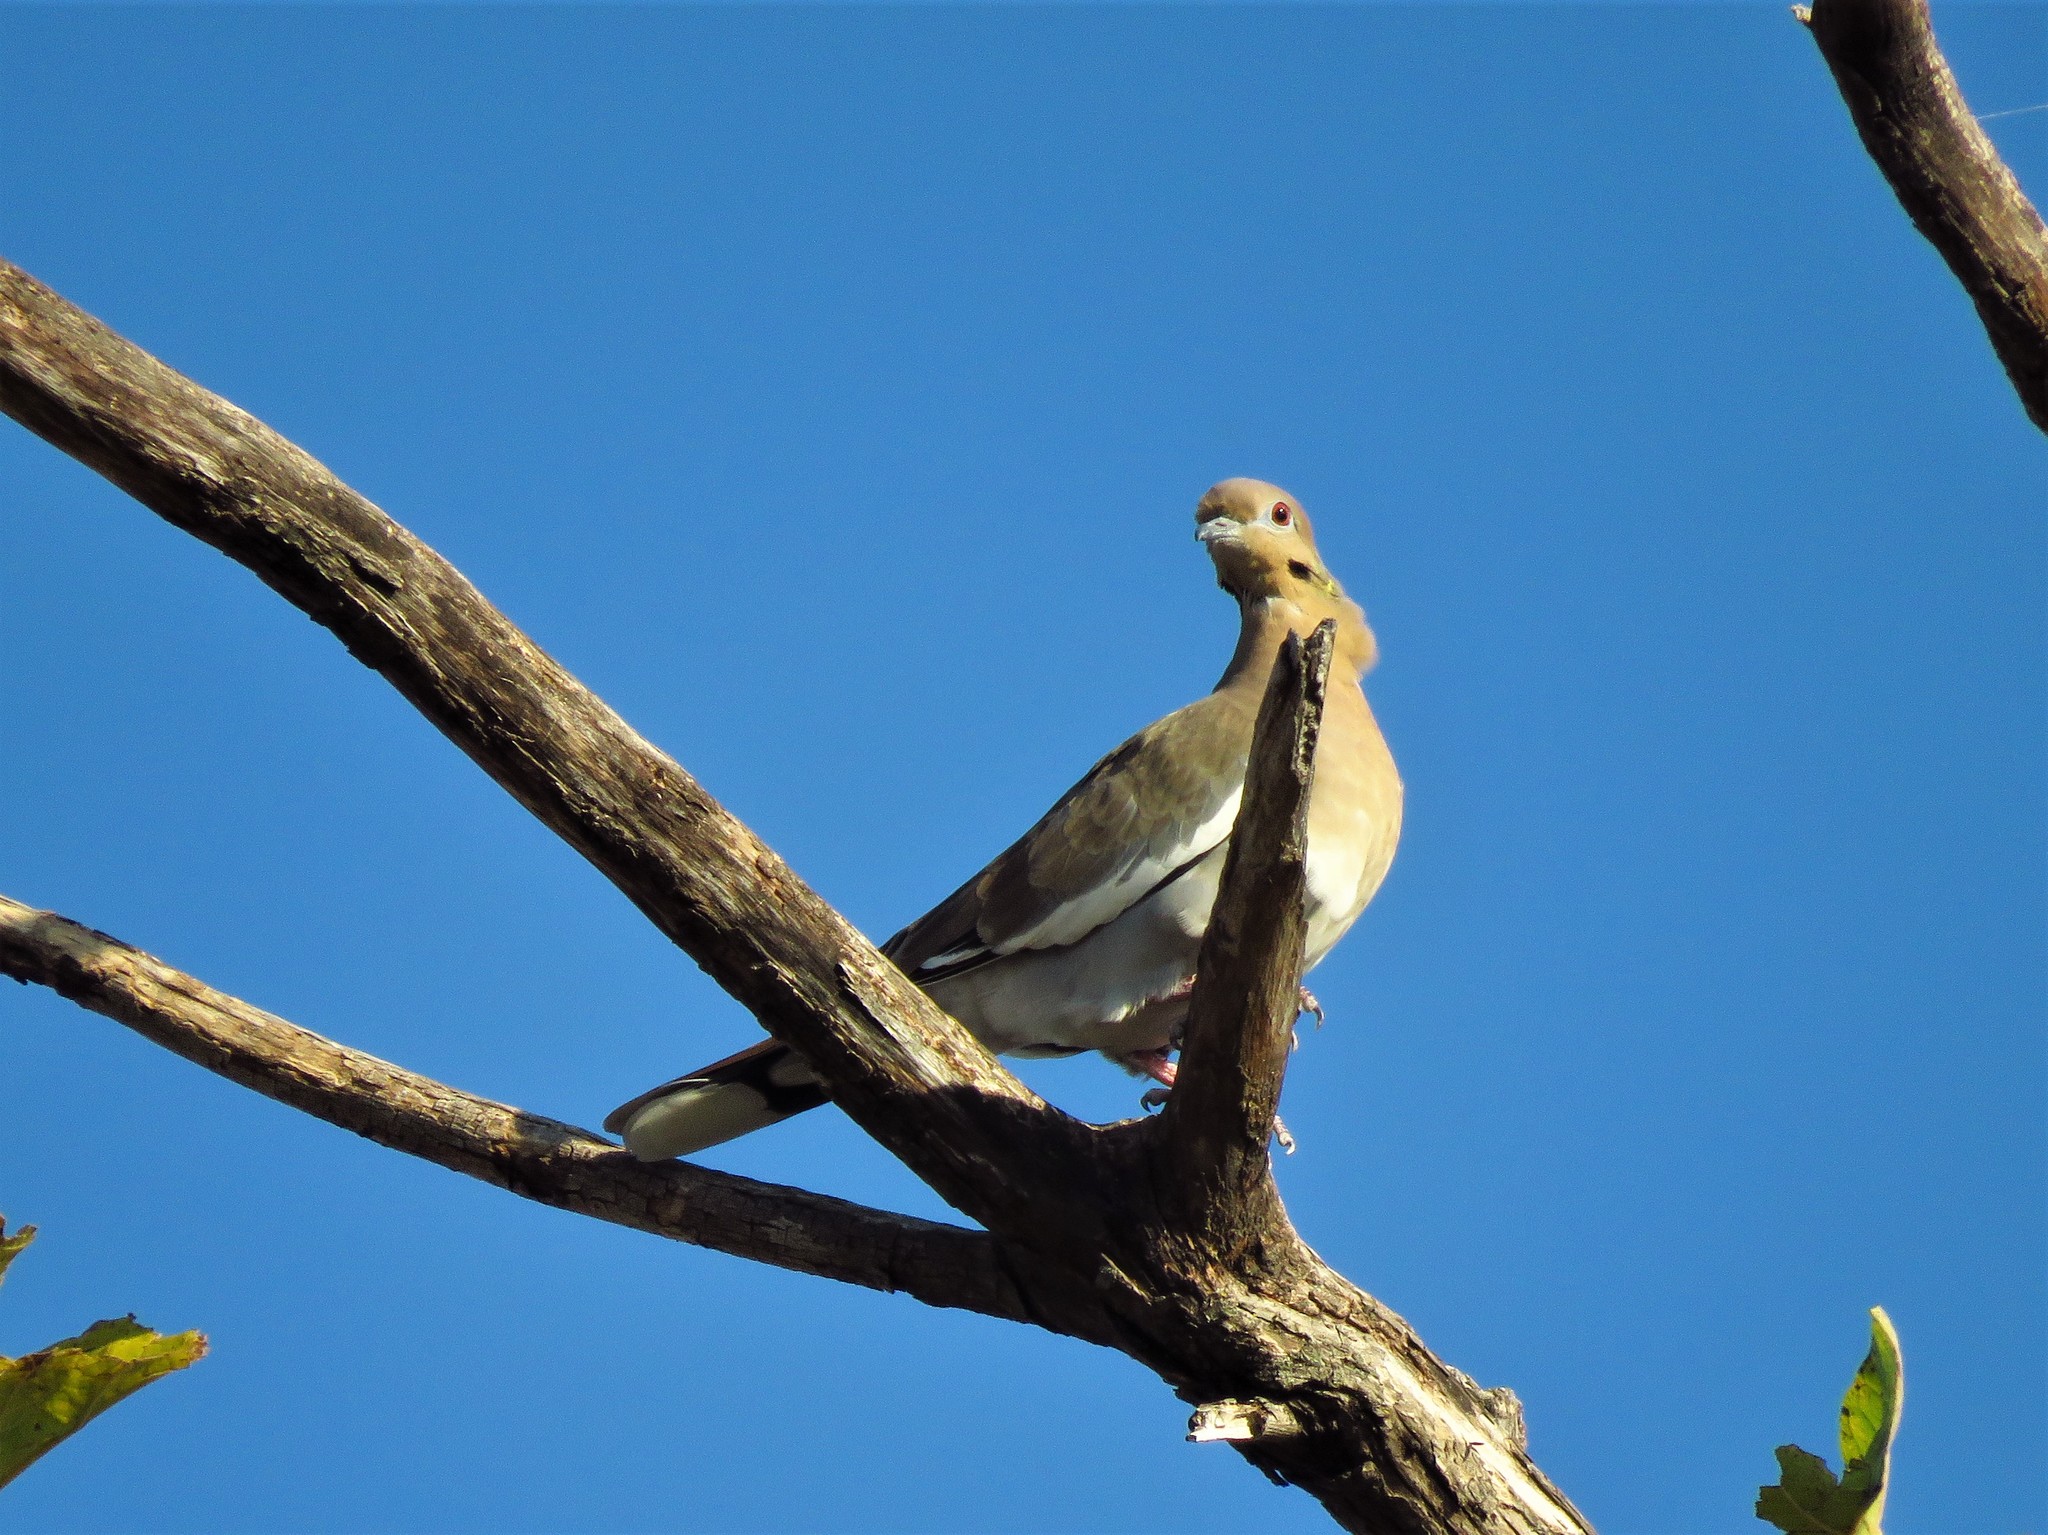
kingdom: Animalia
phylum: Chordata
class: Aves
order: Columbiformes
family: Columbidae
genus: Zenaida
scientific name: Zenaida asiatica
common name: White-winged dove
